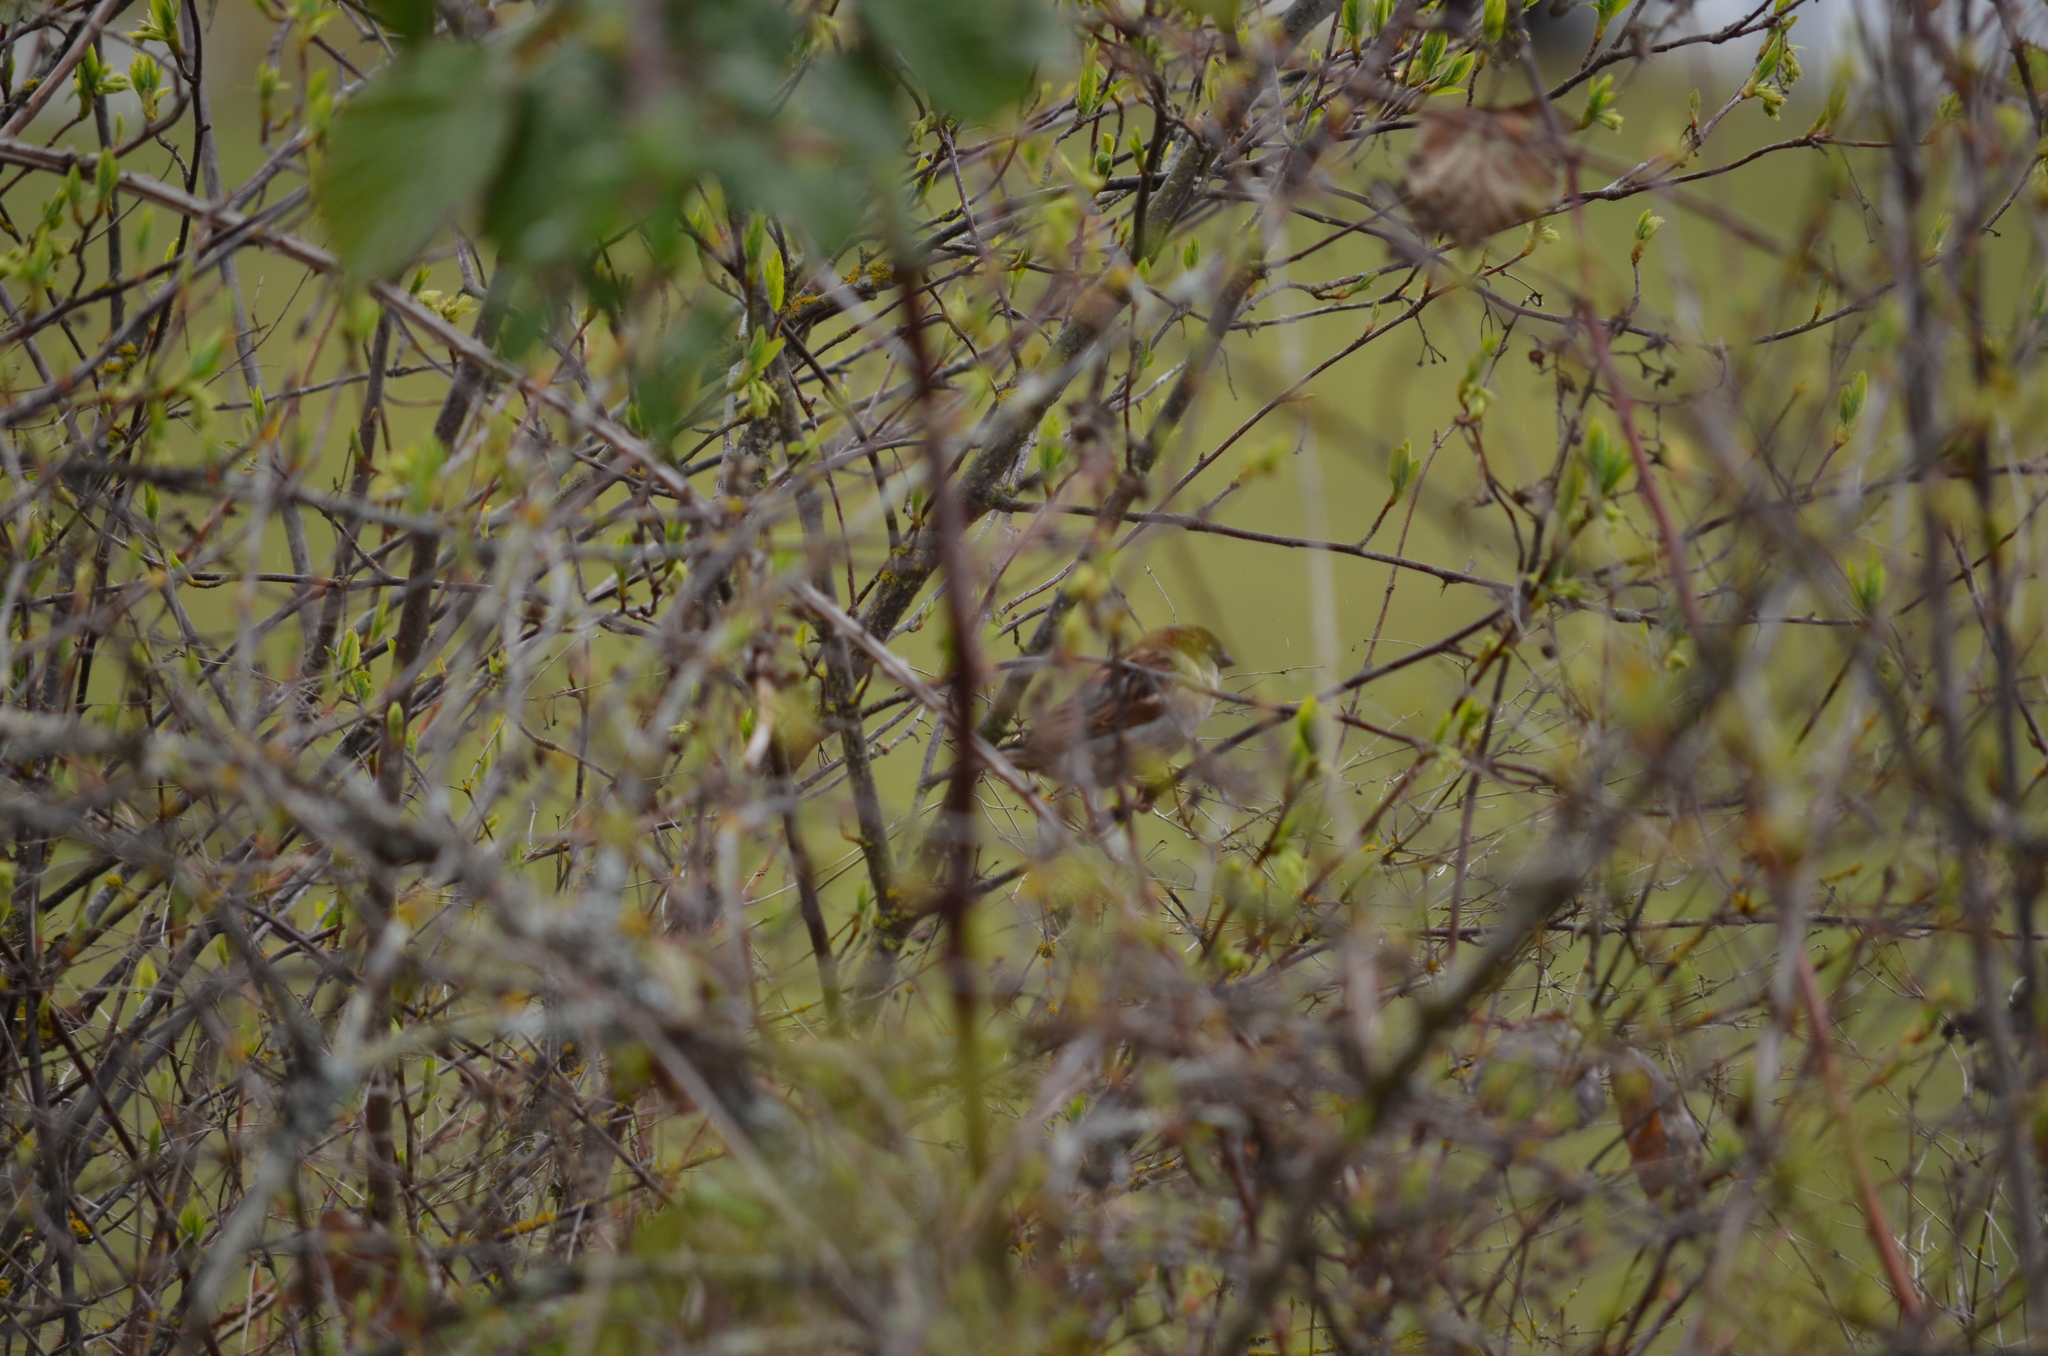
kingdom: Animalia
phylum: Chordata
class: Aves
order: Passeriformes
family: Passeridae
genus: Passer
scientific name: Passer domesticus
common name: House sparrow
